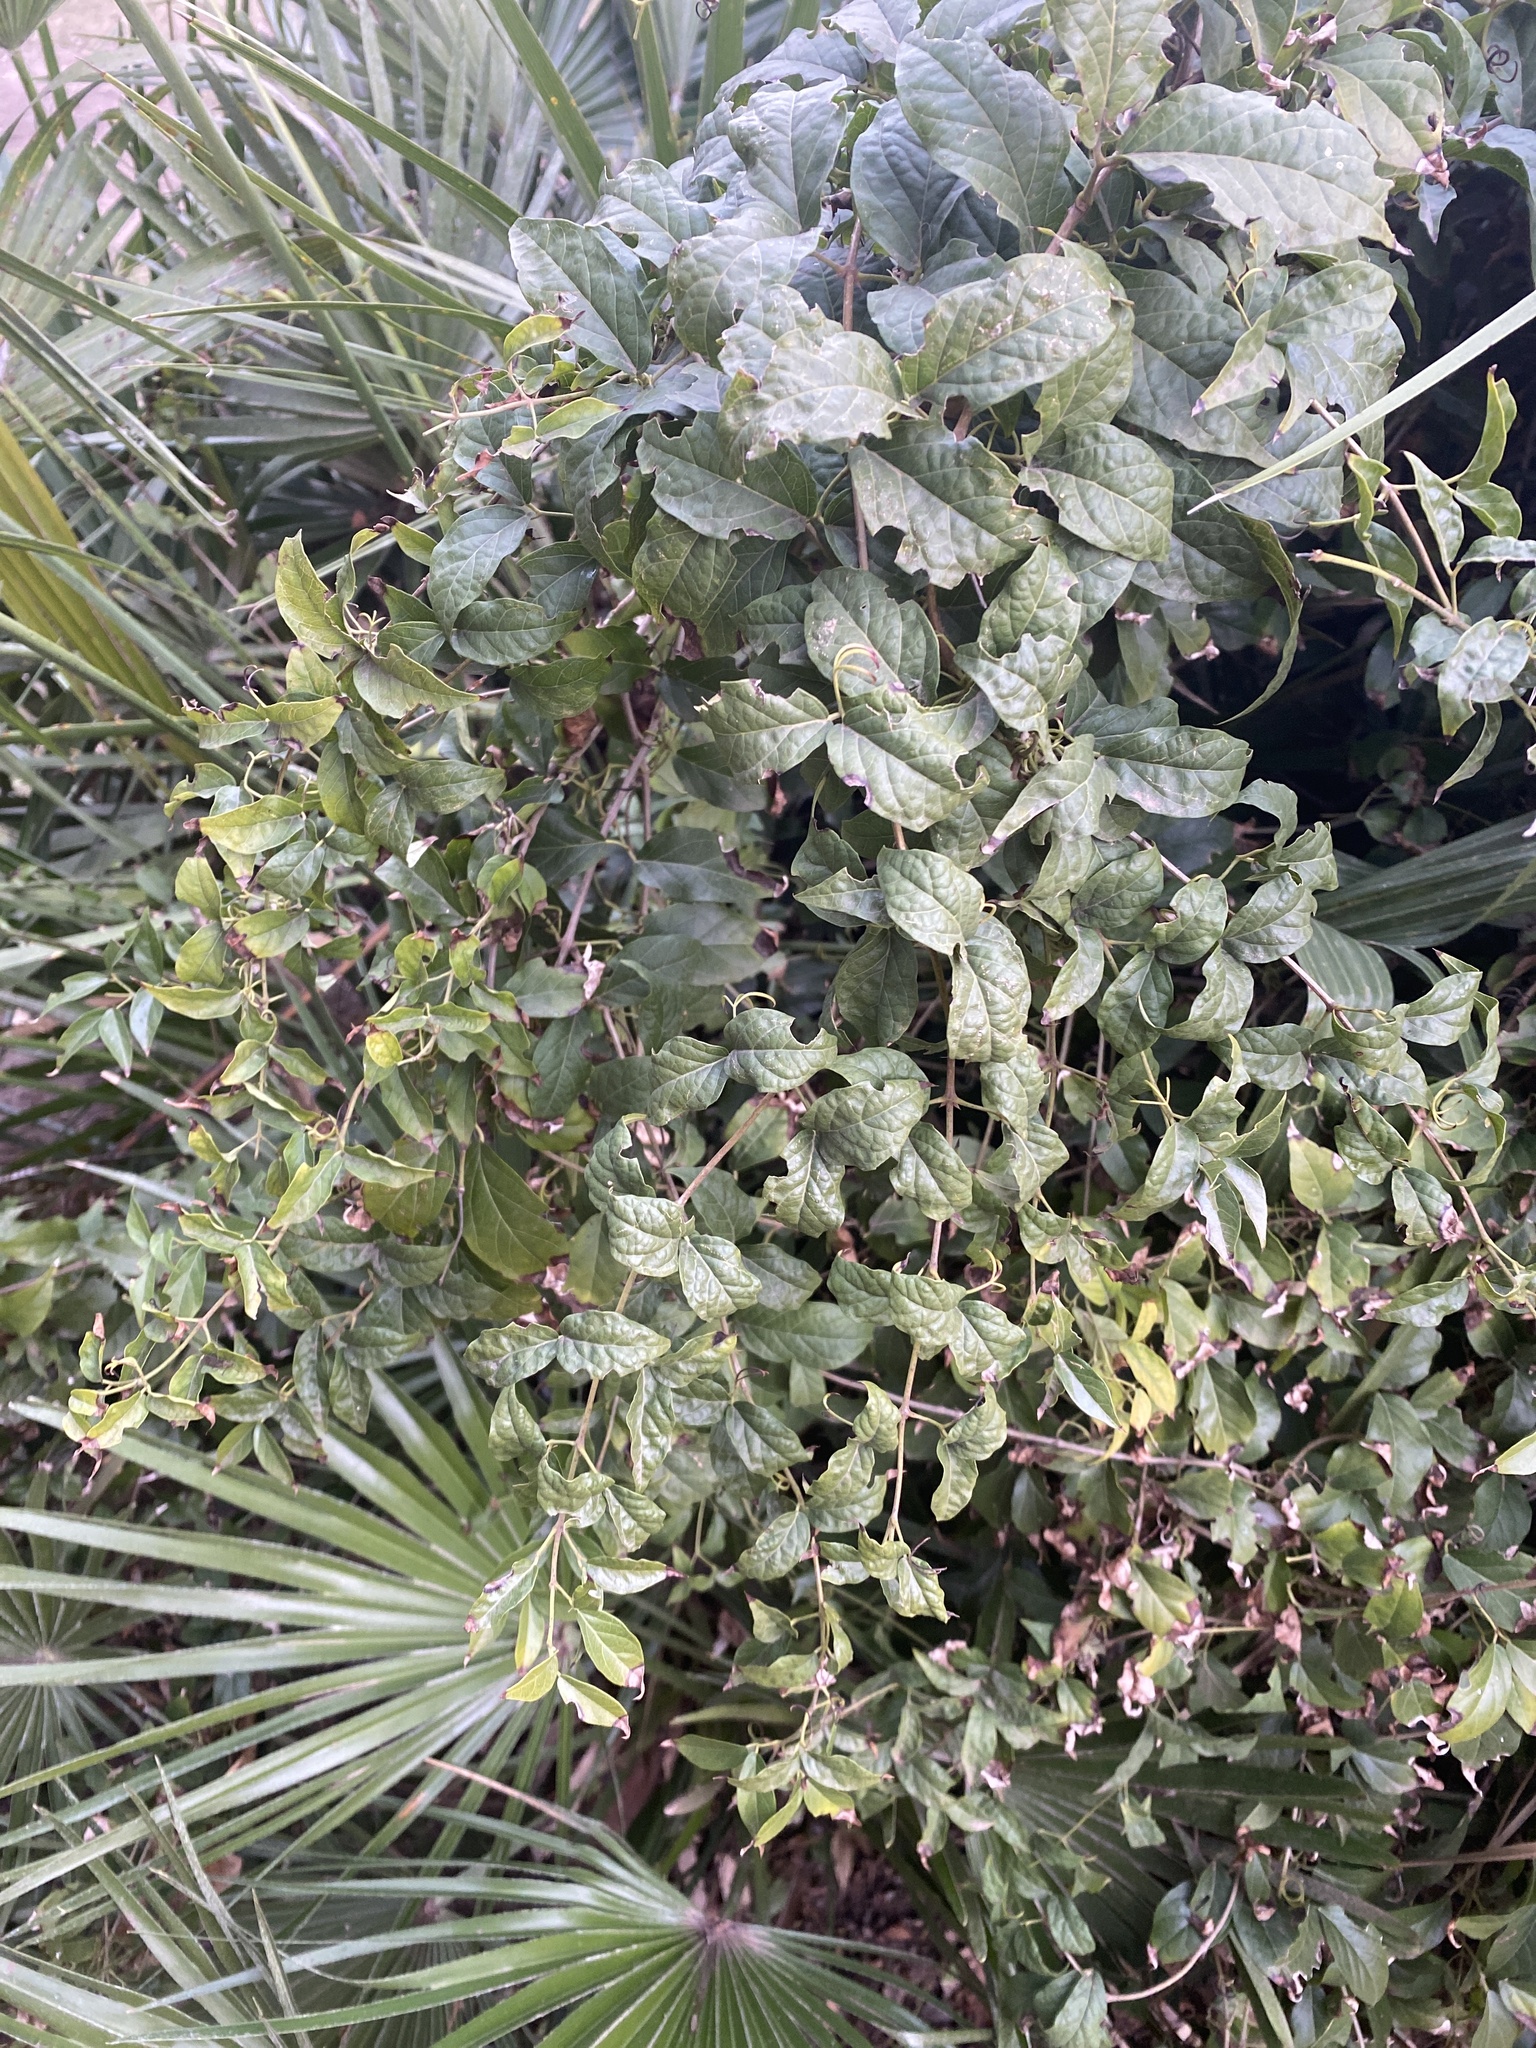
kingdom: Plantae
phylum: Tracheophyta
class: Magnoliopsida
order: Lamiales
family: Bignoniaceae
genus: Dolichandra
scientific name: Dolichandra unguis-cati
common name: Catclaw vine
